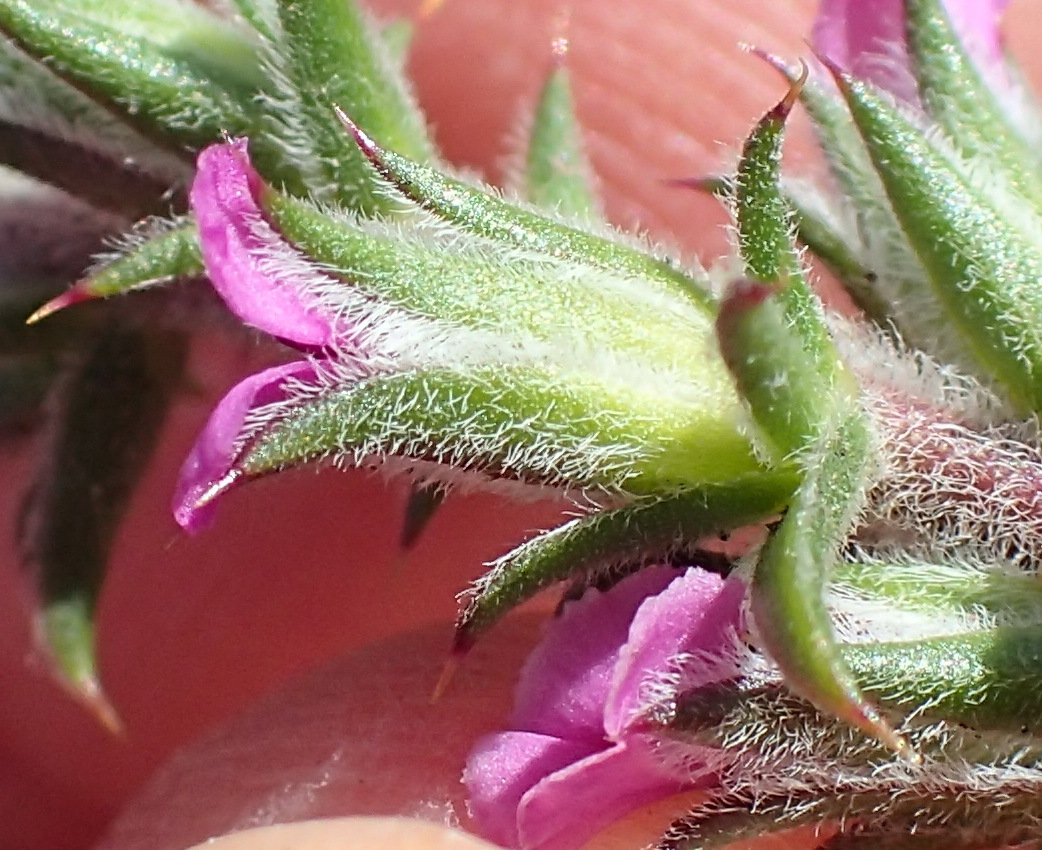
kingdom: Plantae
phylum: Tracheophyta
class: Magnoliopsida
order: Fabales
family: Polygalaceae
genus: Muraltia
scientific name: Muraltia squarrosa
